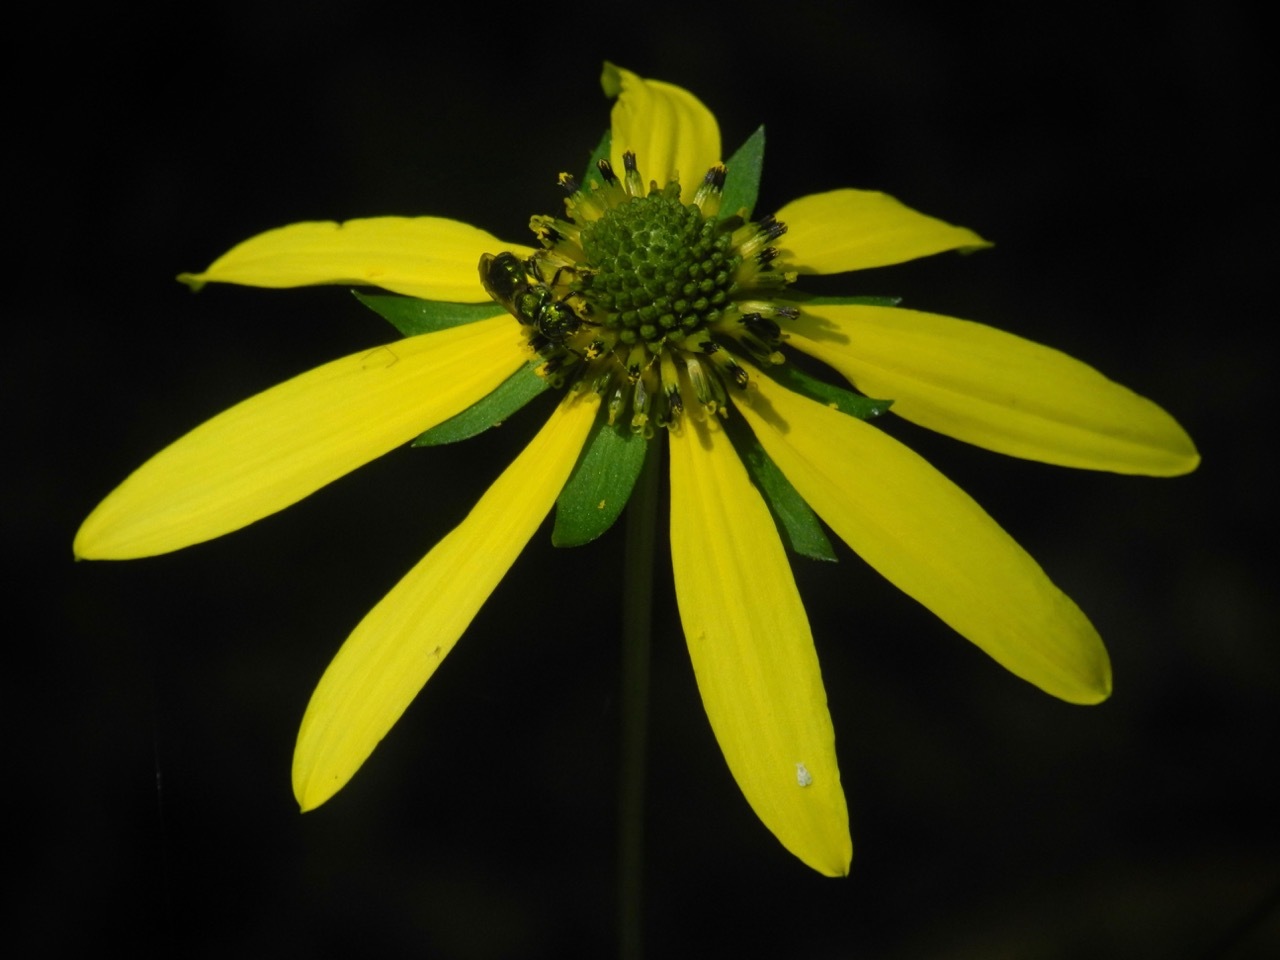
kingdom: Animalia
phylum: Arthropoda
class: Insecta
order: Hymenoptera
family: Halictidae
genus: Augochlora
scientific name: Augochlora pura
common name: Pure green sweat bee
